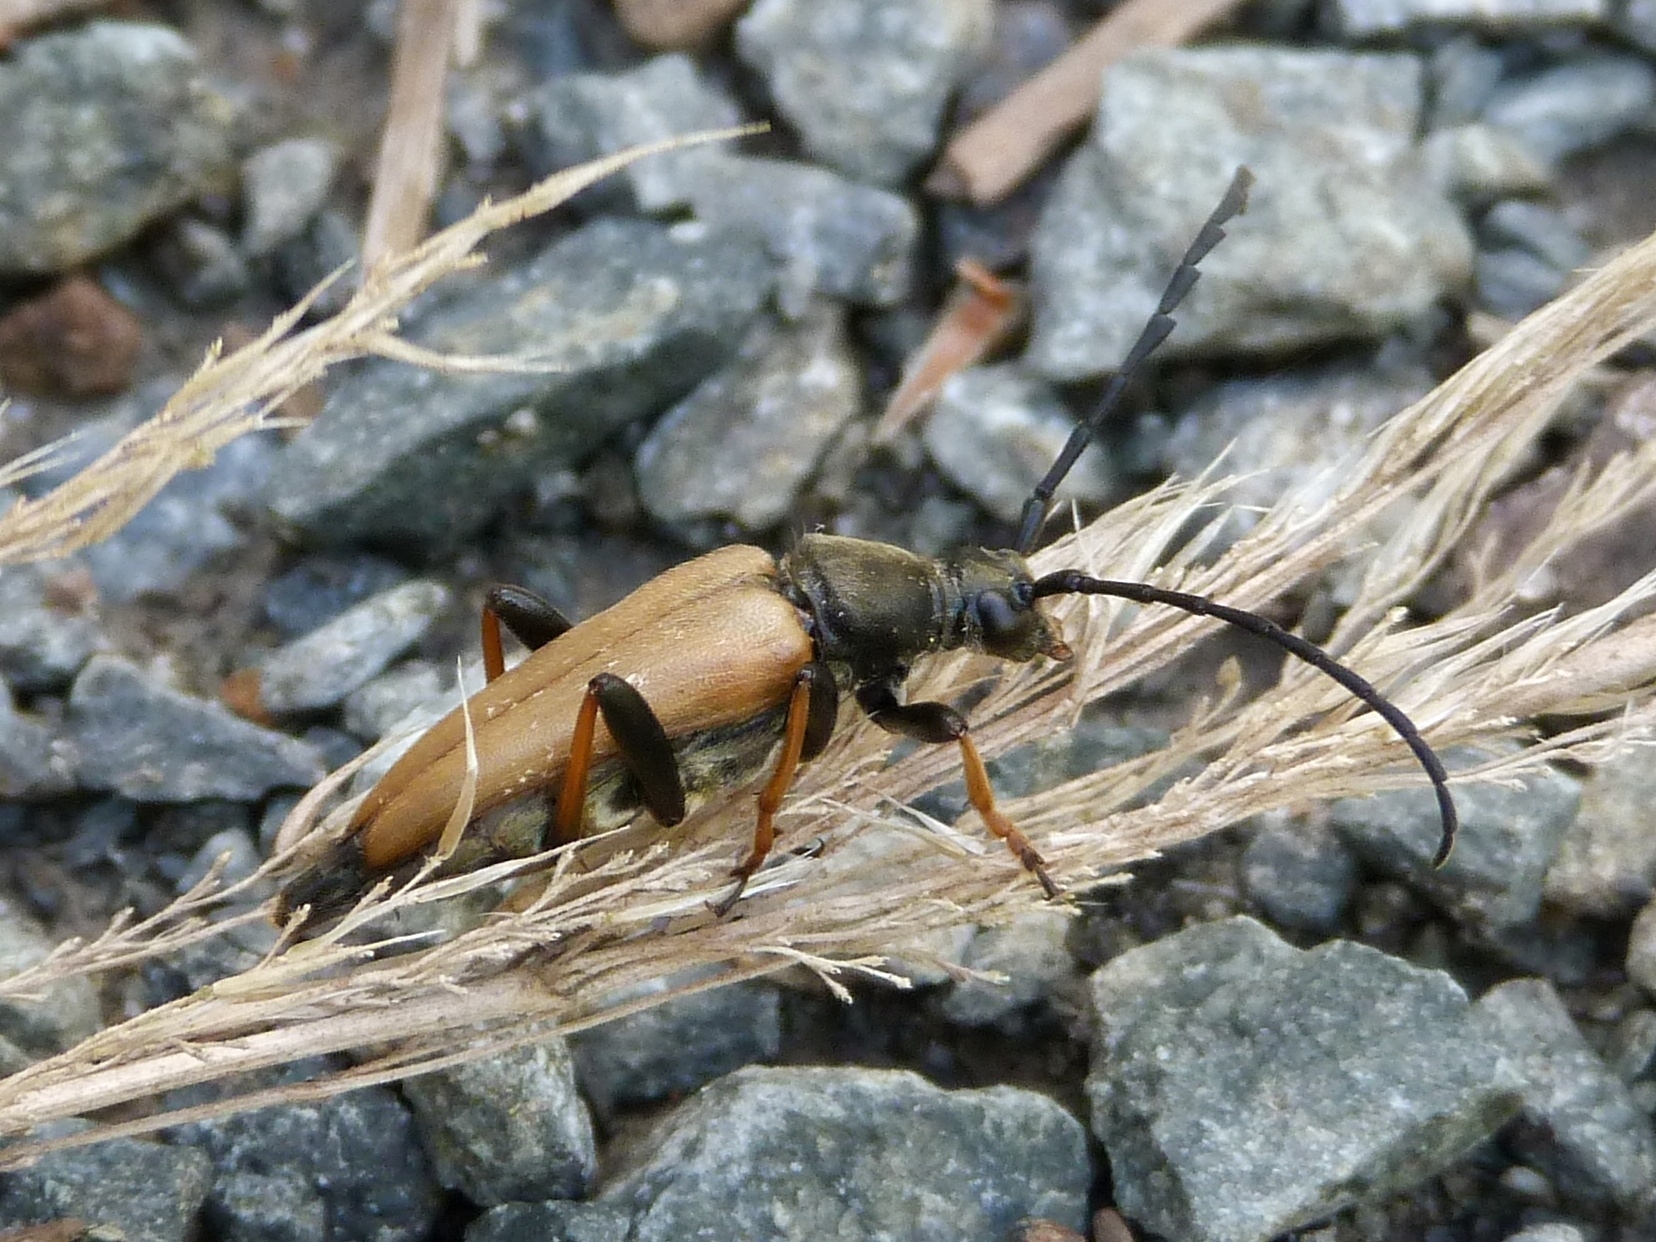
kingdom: Animalia
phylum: Arthropoda
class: Insecta
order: Coleoptera
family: Cerambycidae
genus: Stictoleptura
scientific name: Stictoleptura rubra
